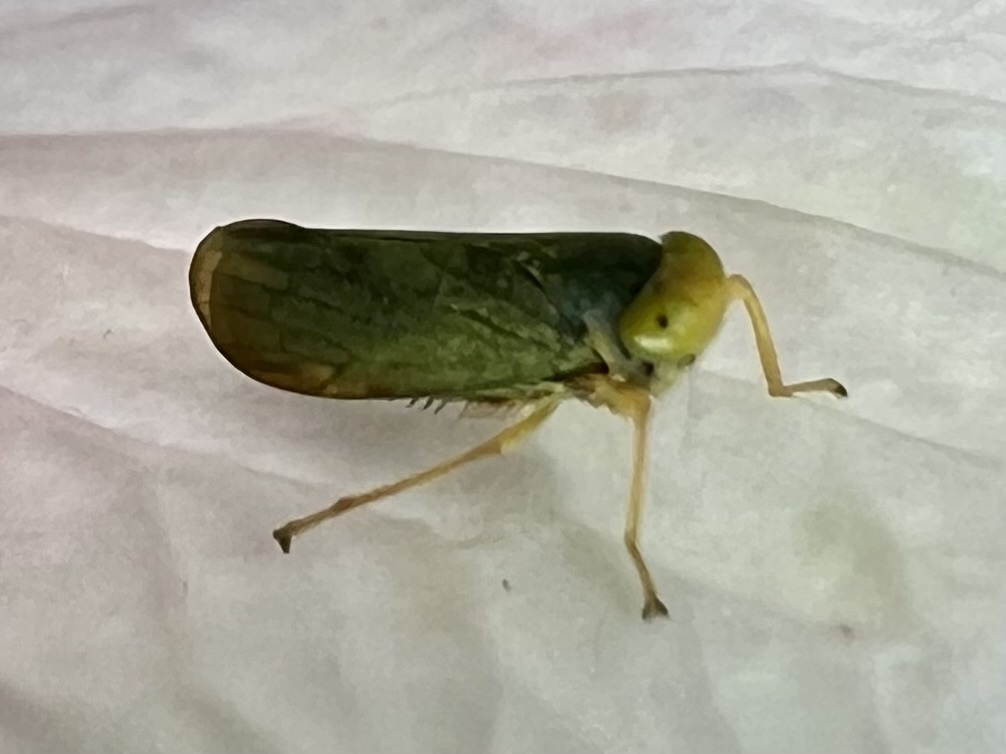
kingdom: Animalia
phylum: Arthropoda
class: Insecta
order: Hemiptera
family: Cicadellidae
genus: Jikradia
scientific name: Jikradia olitoria
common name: Coppery leafhopper
